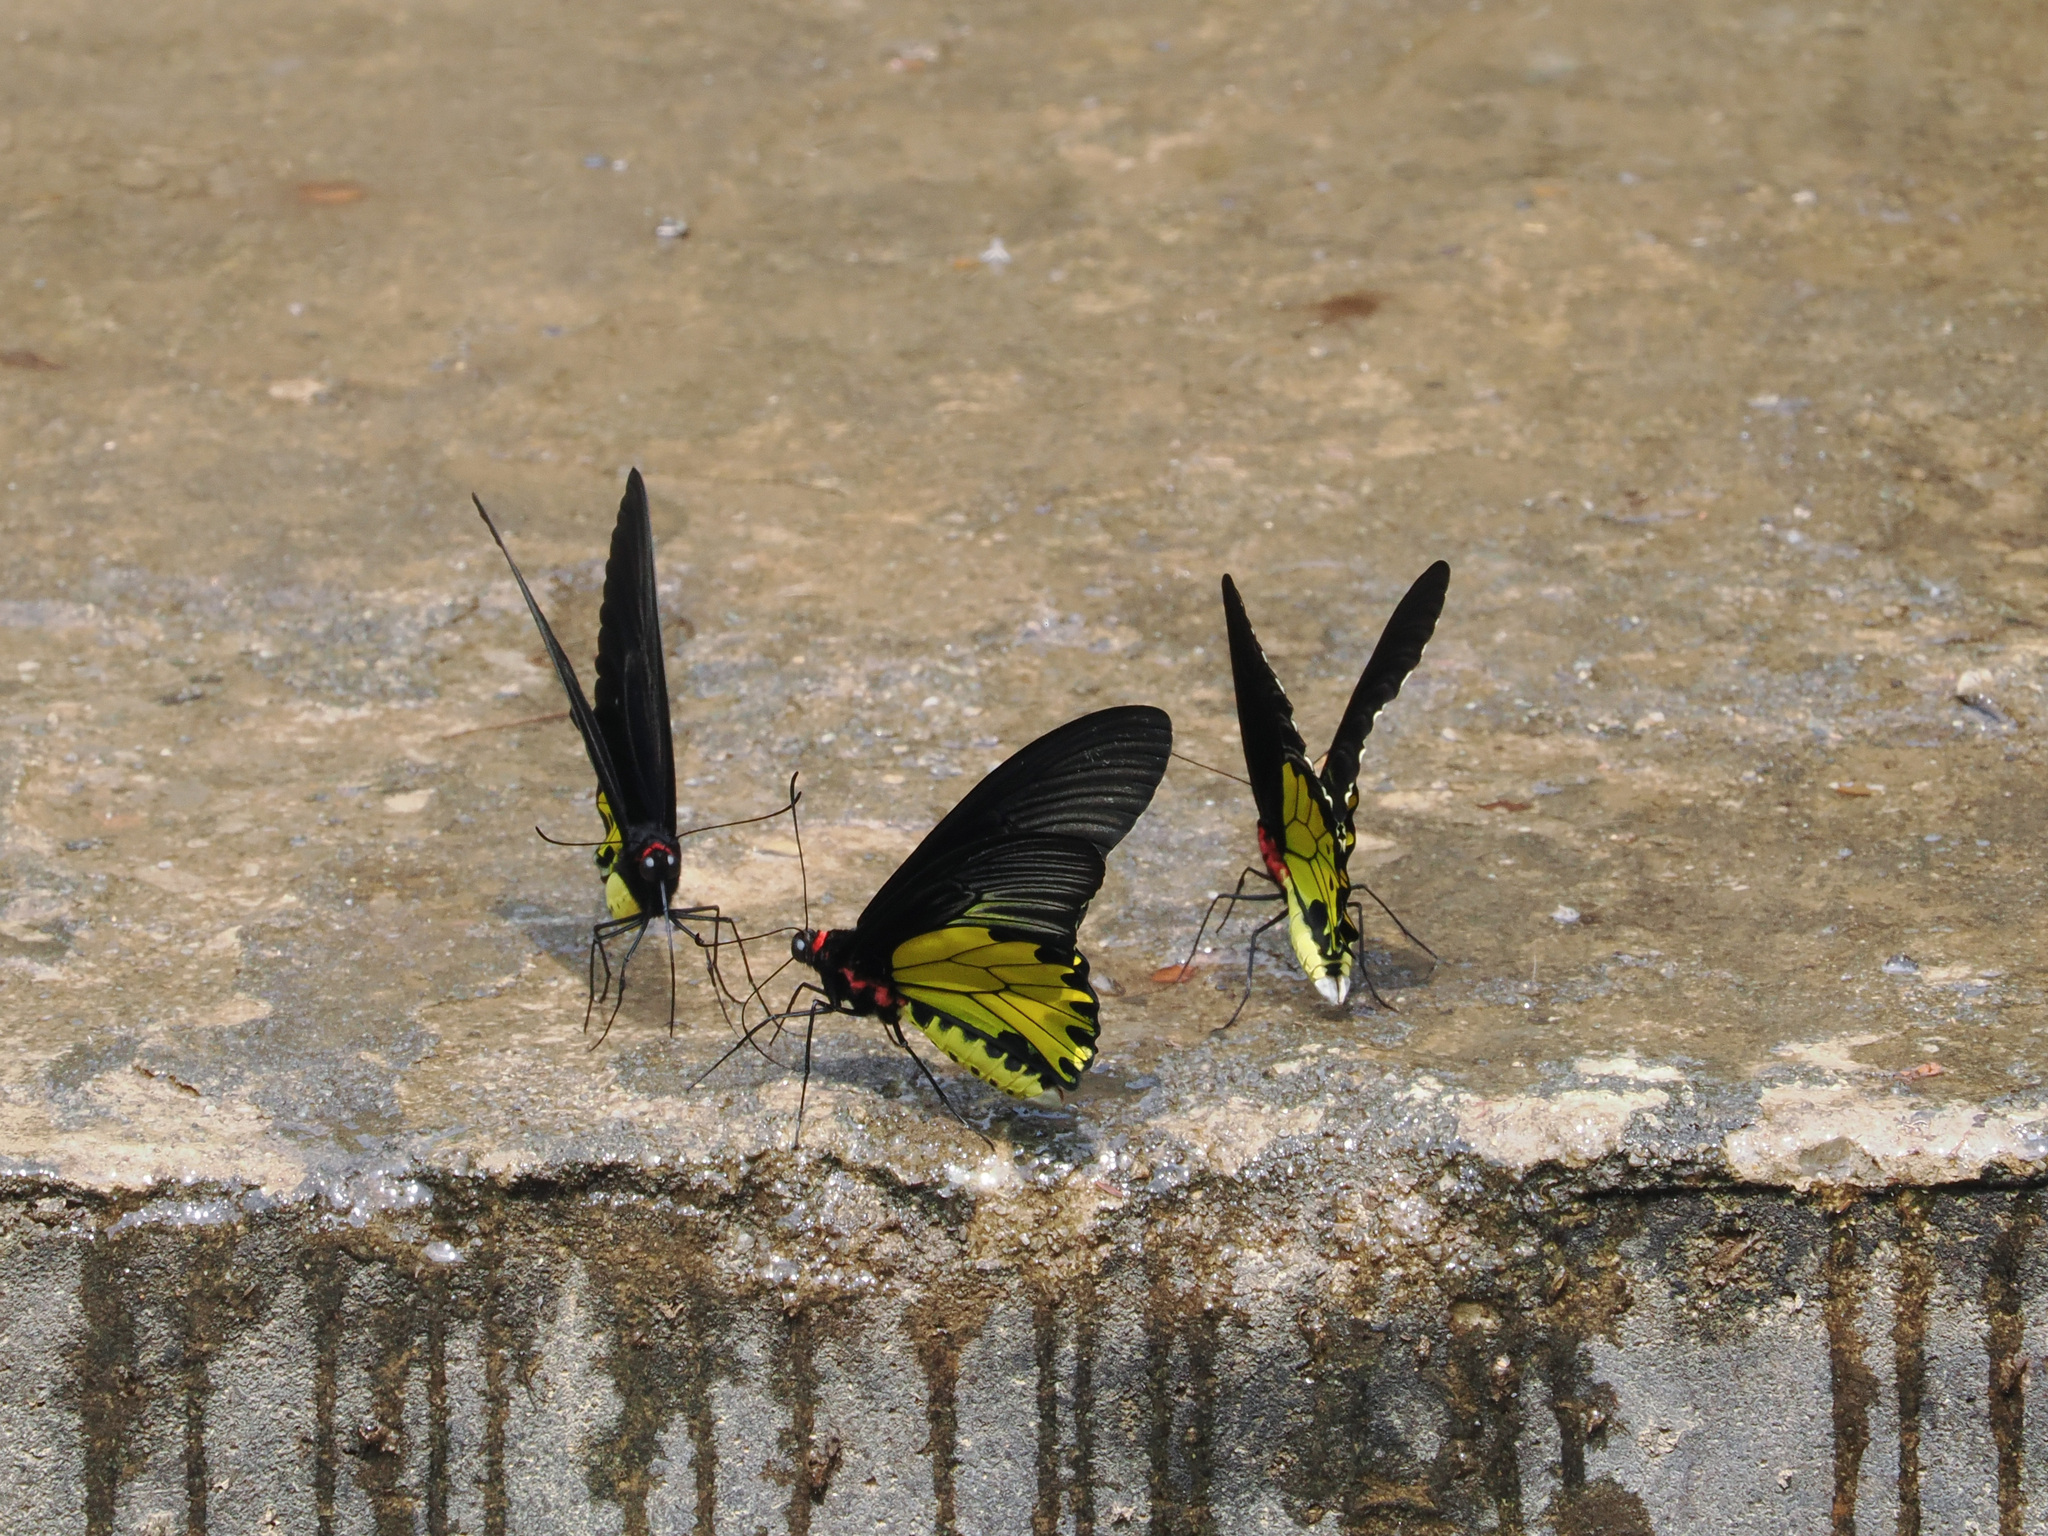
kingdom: Animalia
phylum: Arthropoda
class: Insecta
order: Lepidoptera
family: Papilionidae
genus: Troides
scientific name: Troides helena
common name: Common birdwing
